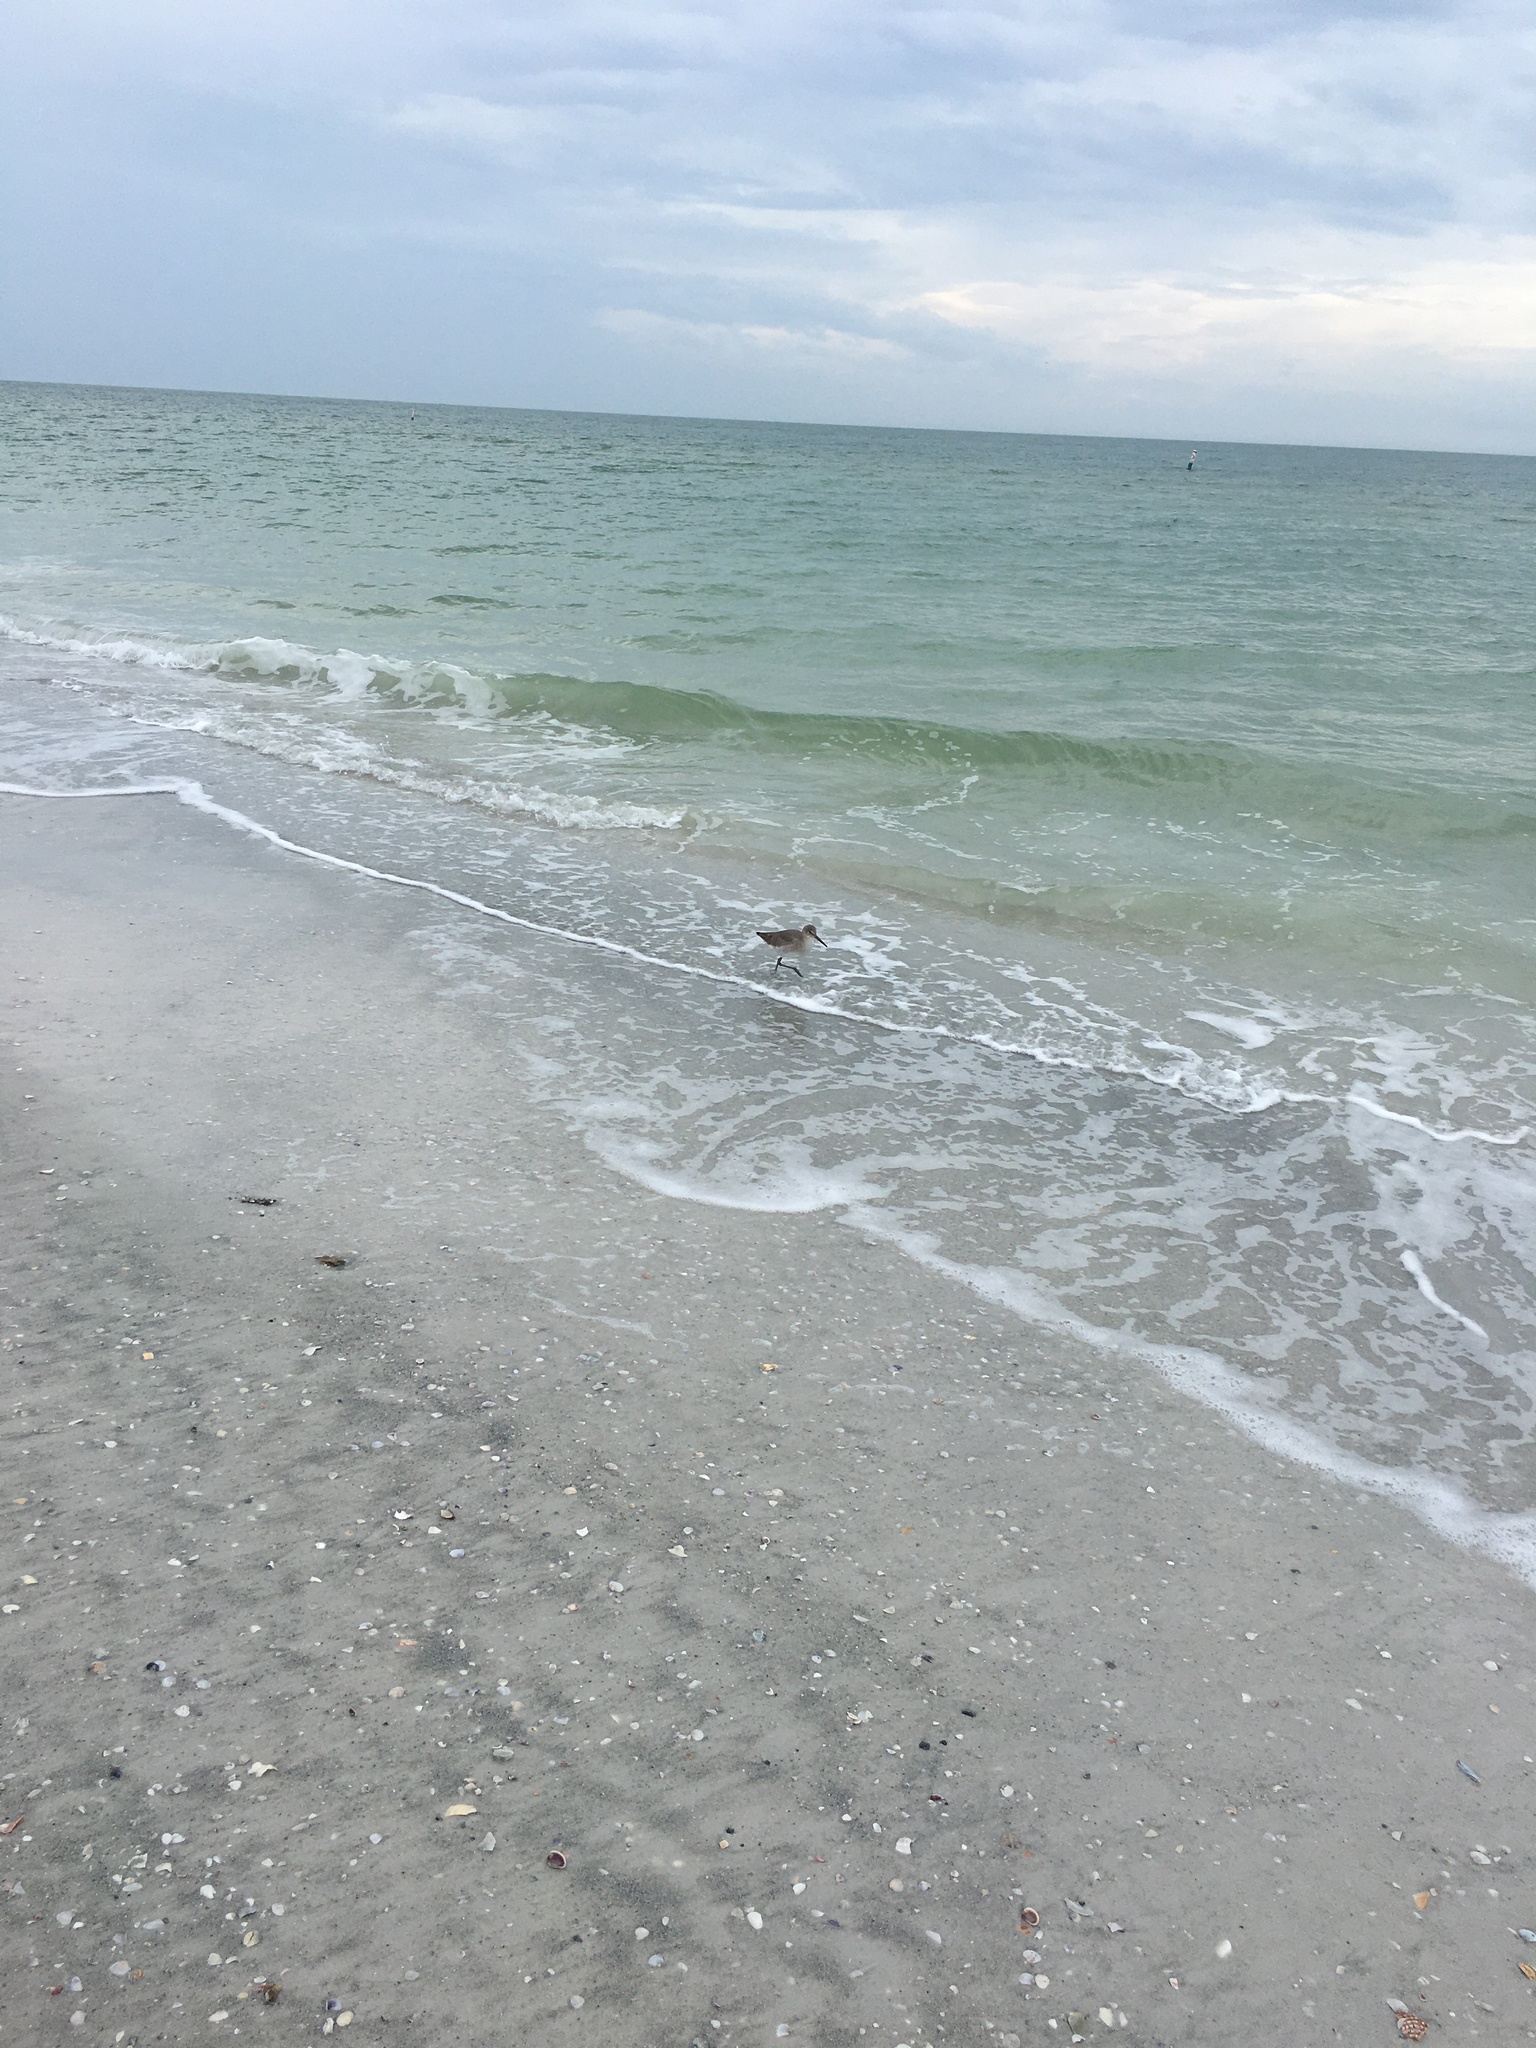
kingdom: Animalia
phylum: Chordata
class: Aves
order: Charadriiformes
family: Scolopacidae
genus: Tringa
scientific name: Tringa semipalmata
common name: Willet
